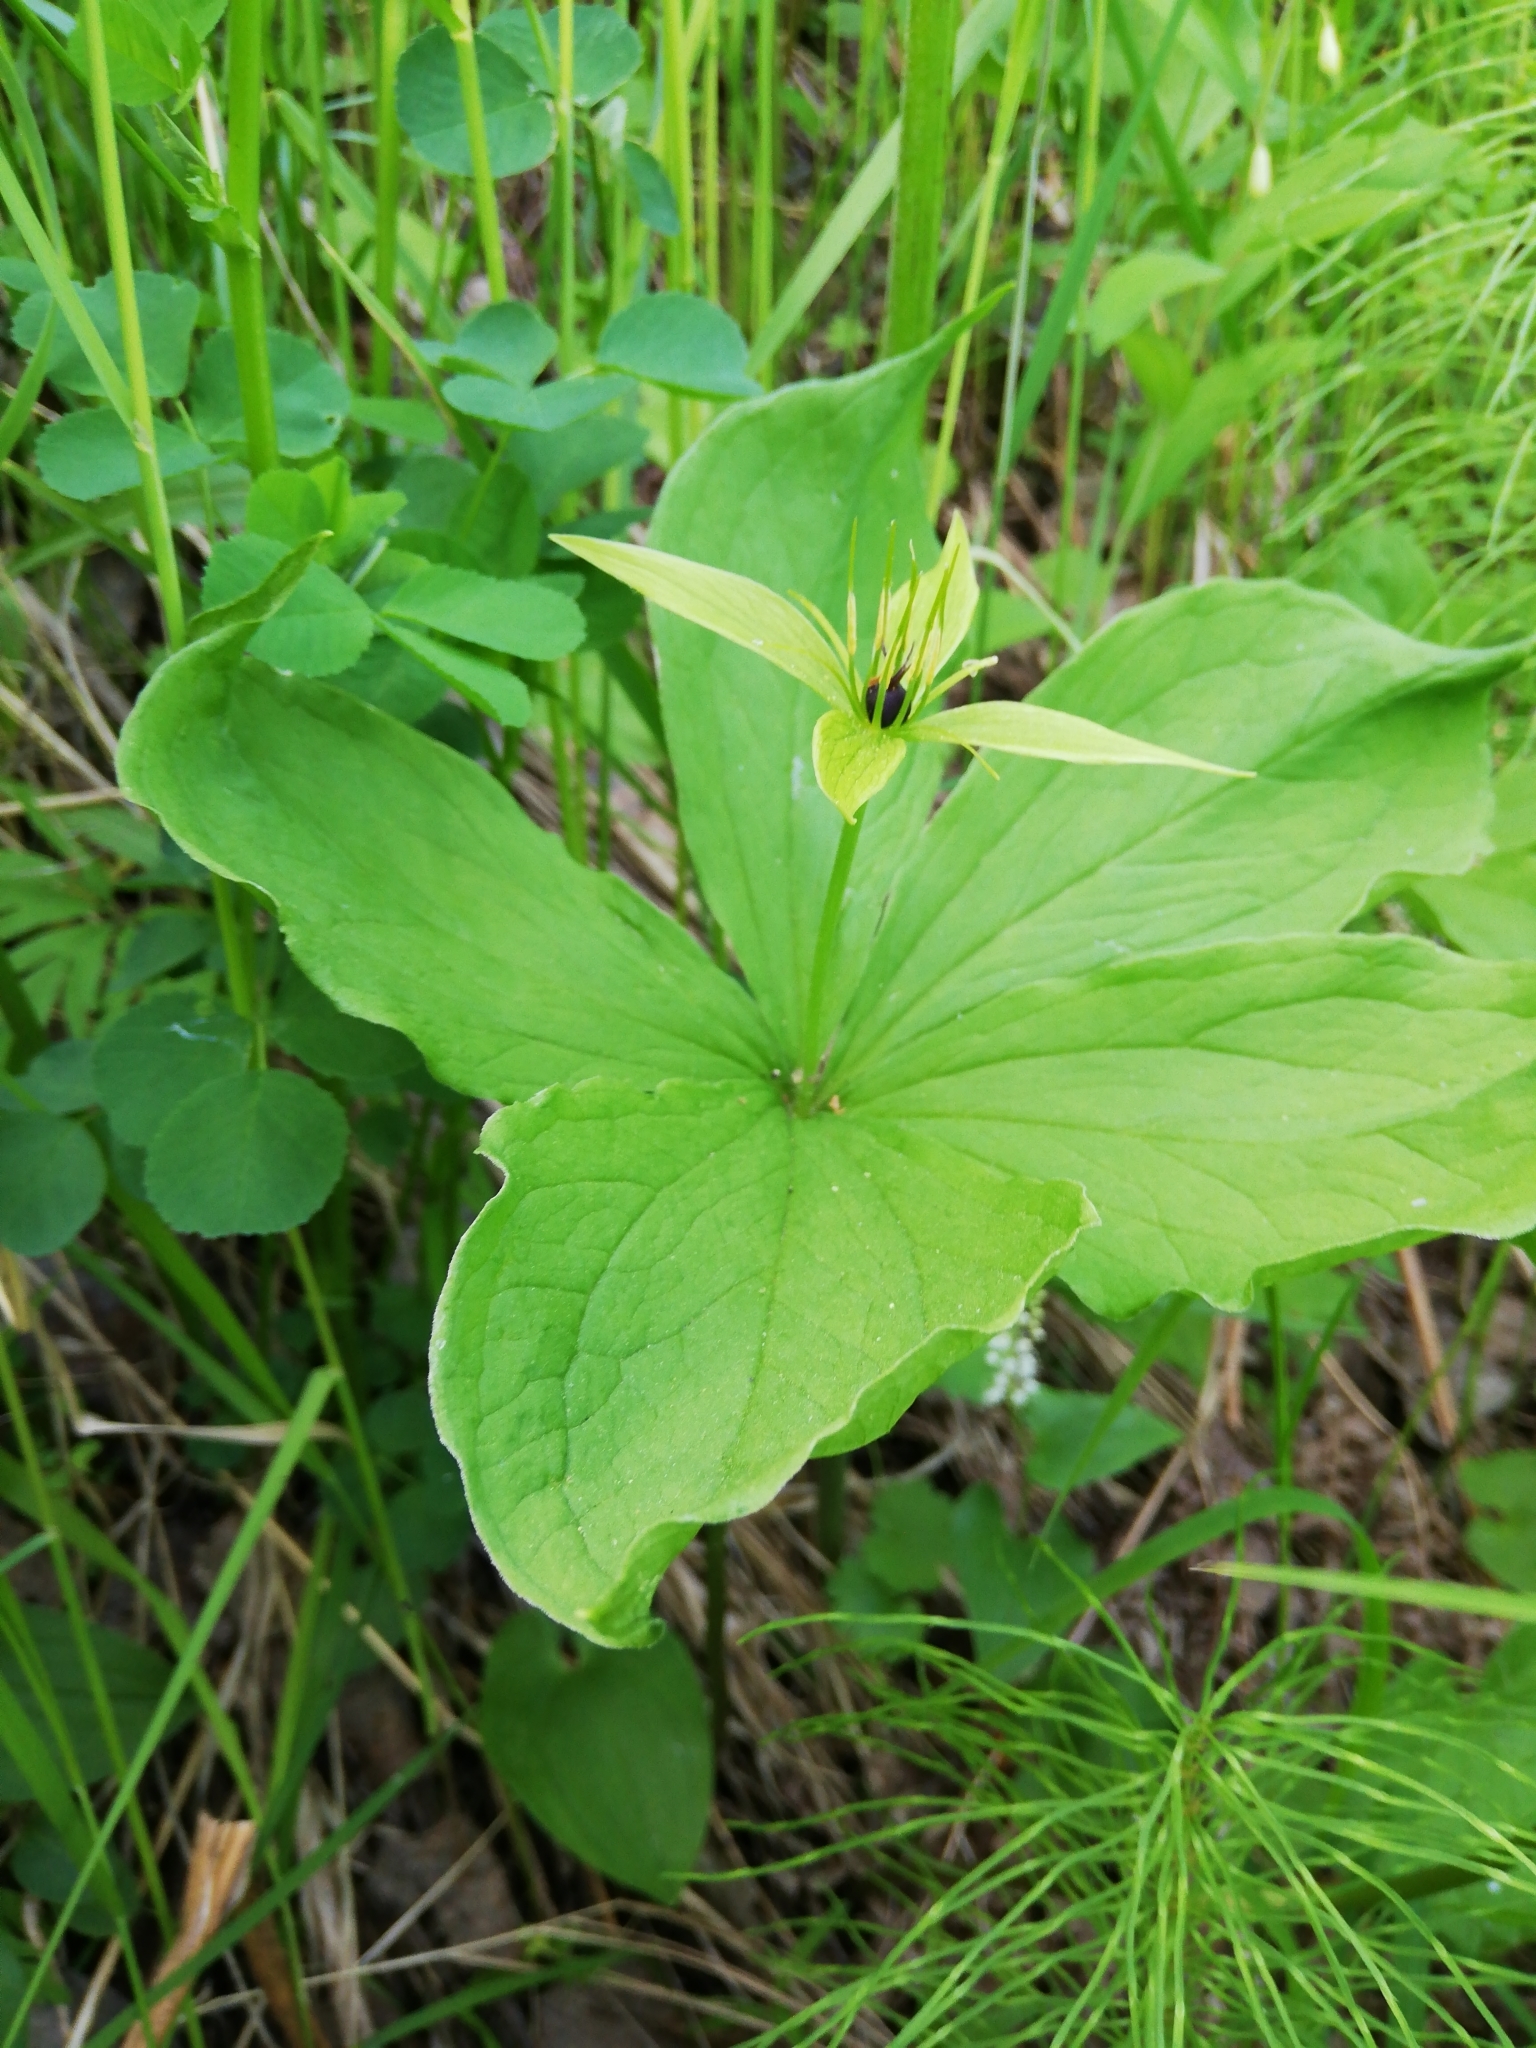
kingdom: Plantae
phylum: Tracheophyta
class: Liliopsida
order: Liliales
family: Melanthiaceae
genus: Paris
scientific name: Paris quadrifolia
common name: Herb-paris
